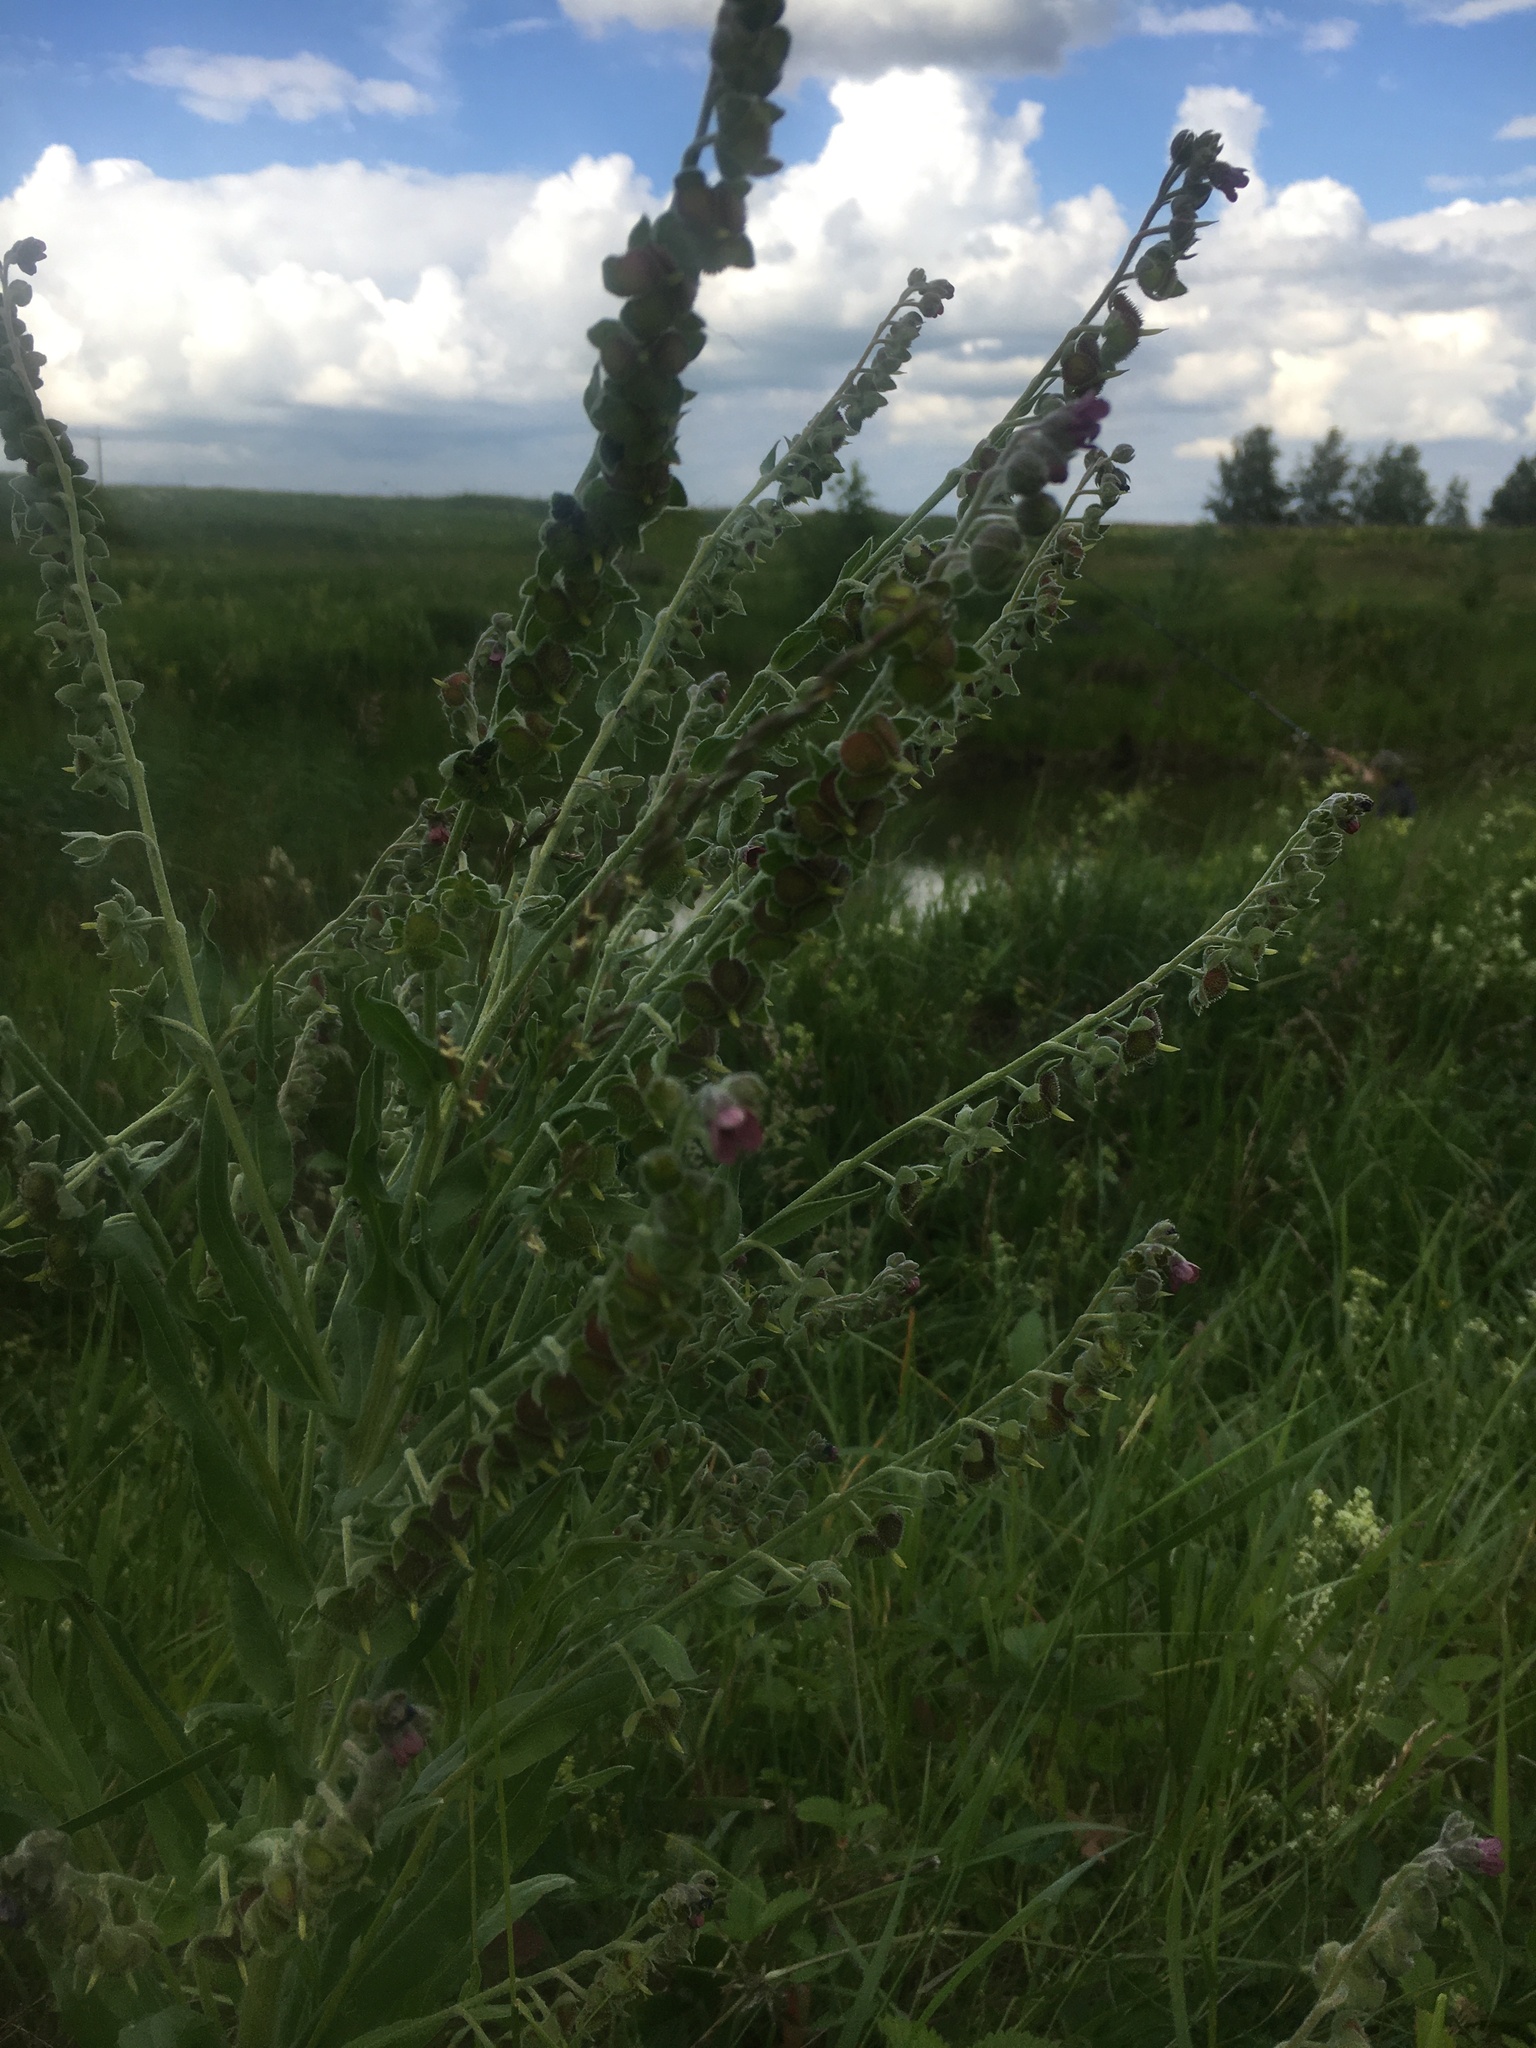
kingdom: Plantae
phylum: Tracheophyta
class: Magnoliopsida
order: Boraginales
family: Boraginaceae
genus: Cynoglossum
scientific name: Cynoglossum officinale
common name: Hound's-tongue
